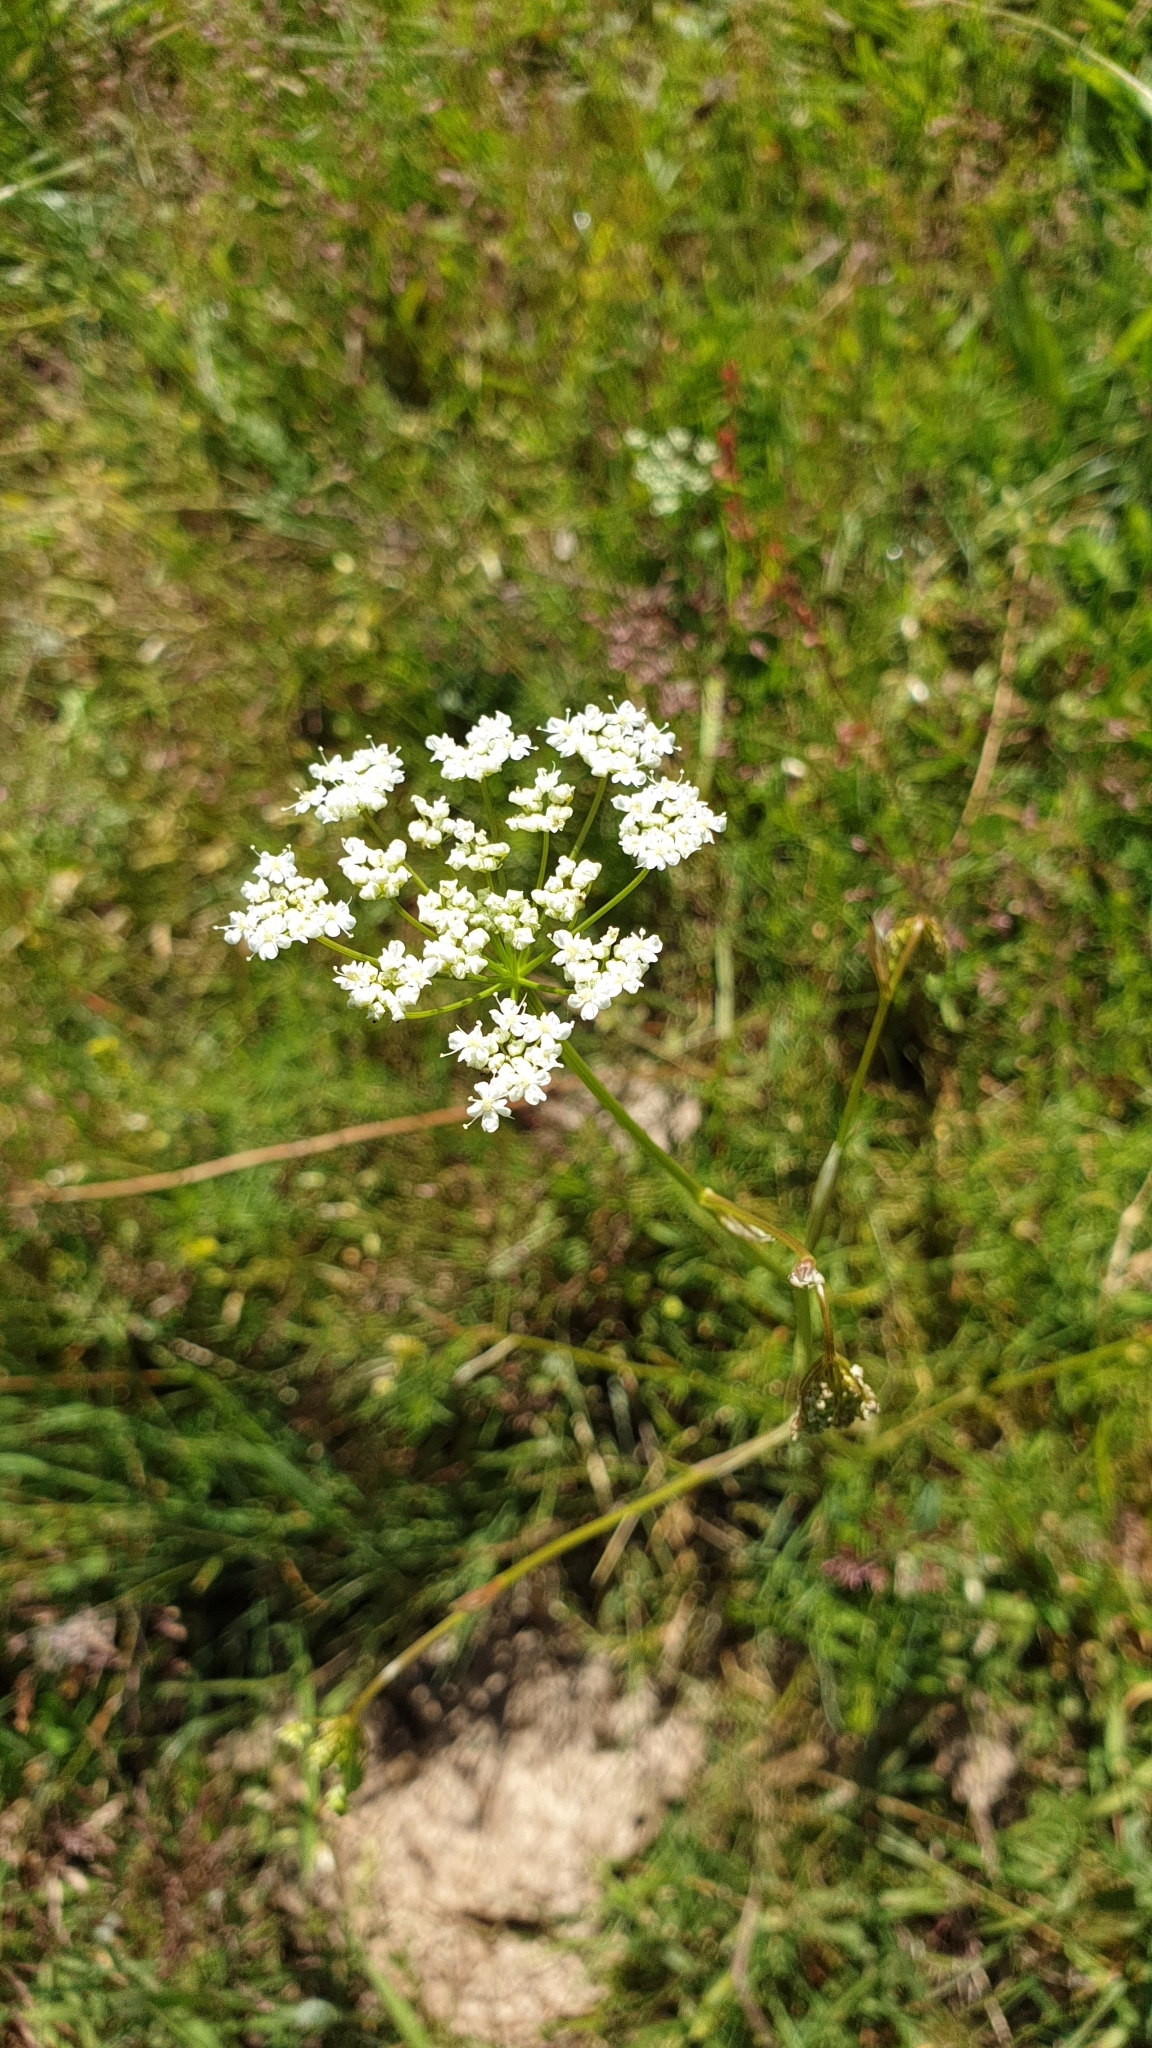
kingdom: Plantae
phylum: Tracheophyta
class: Magnoliopsida
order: Apiales
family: Apiaceae
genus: Pimpinella
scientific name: Pimpinella saxifraga
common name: Burnet-saxifrage
